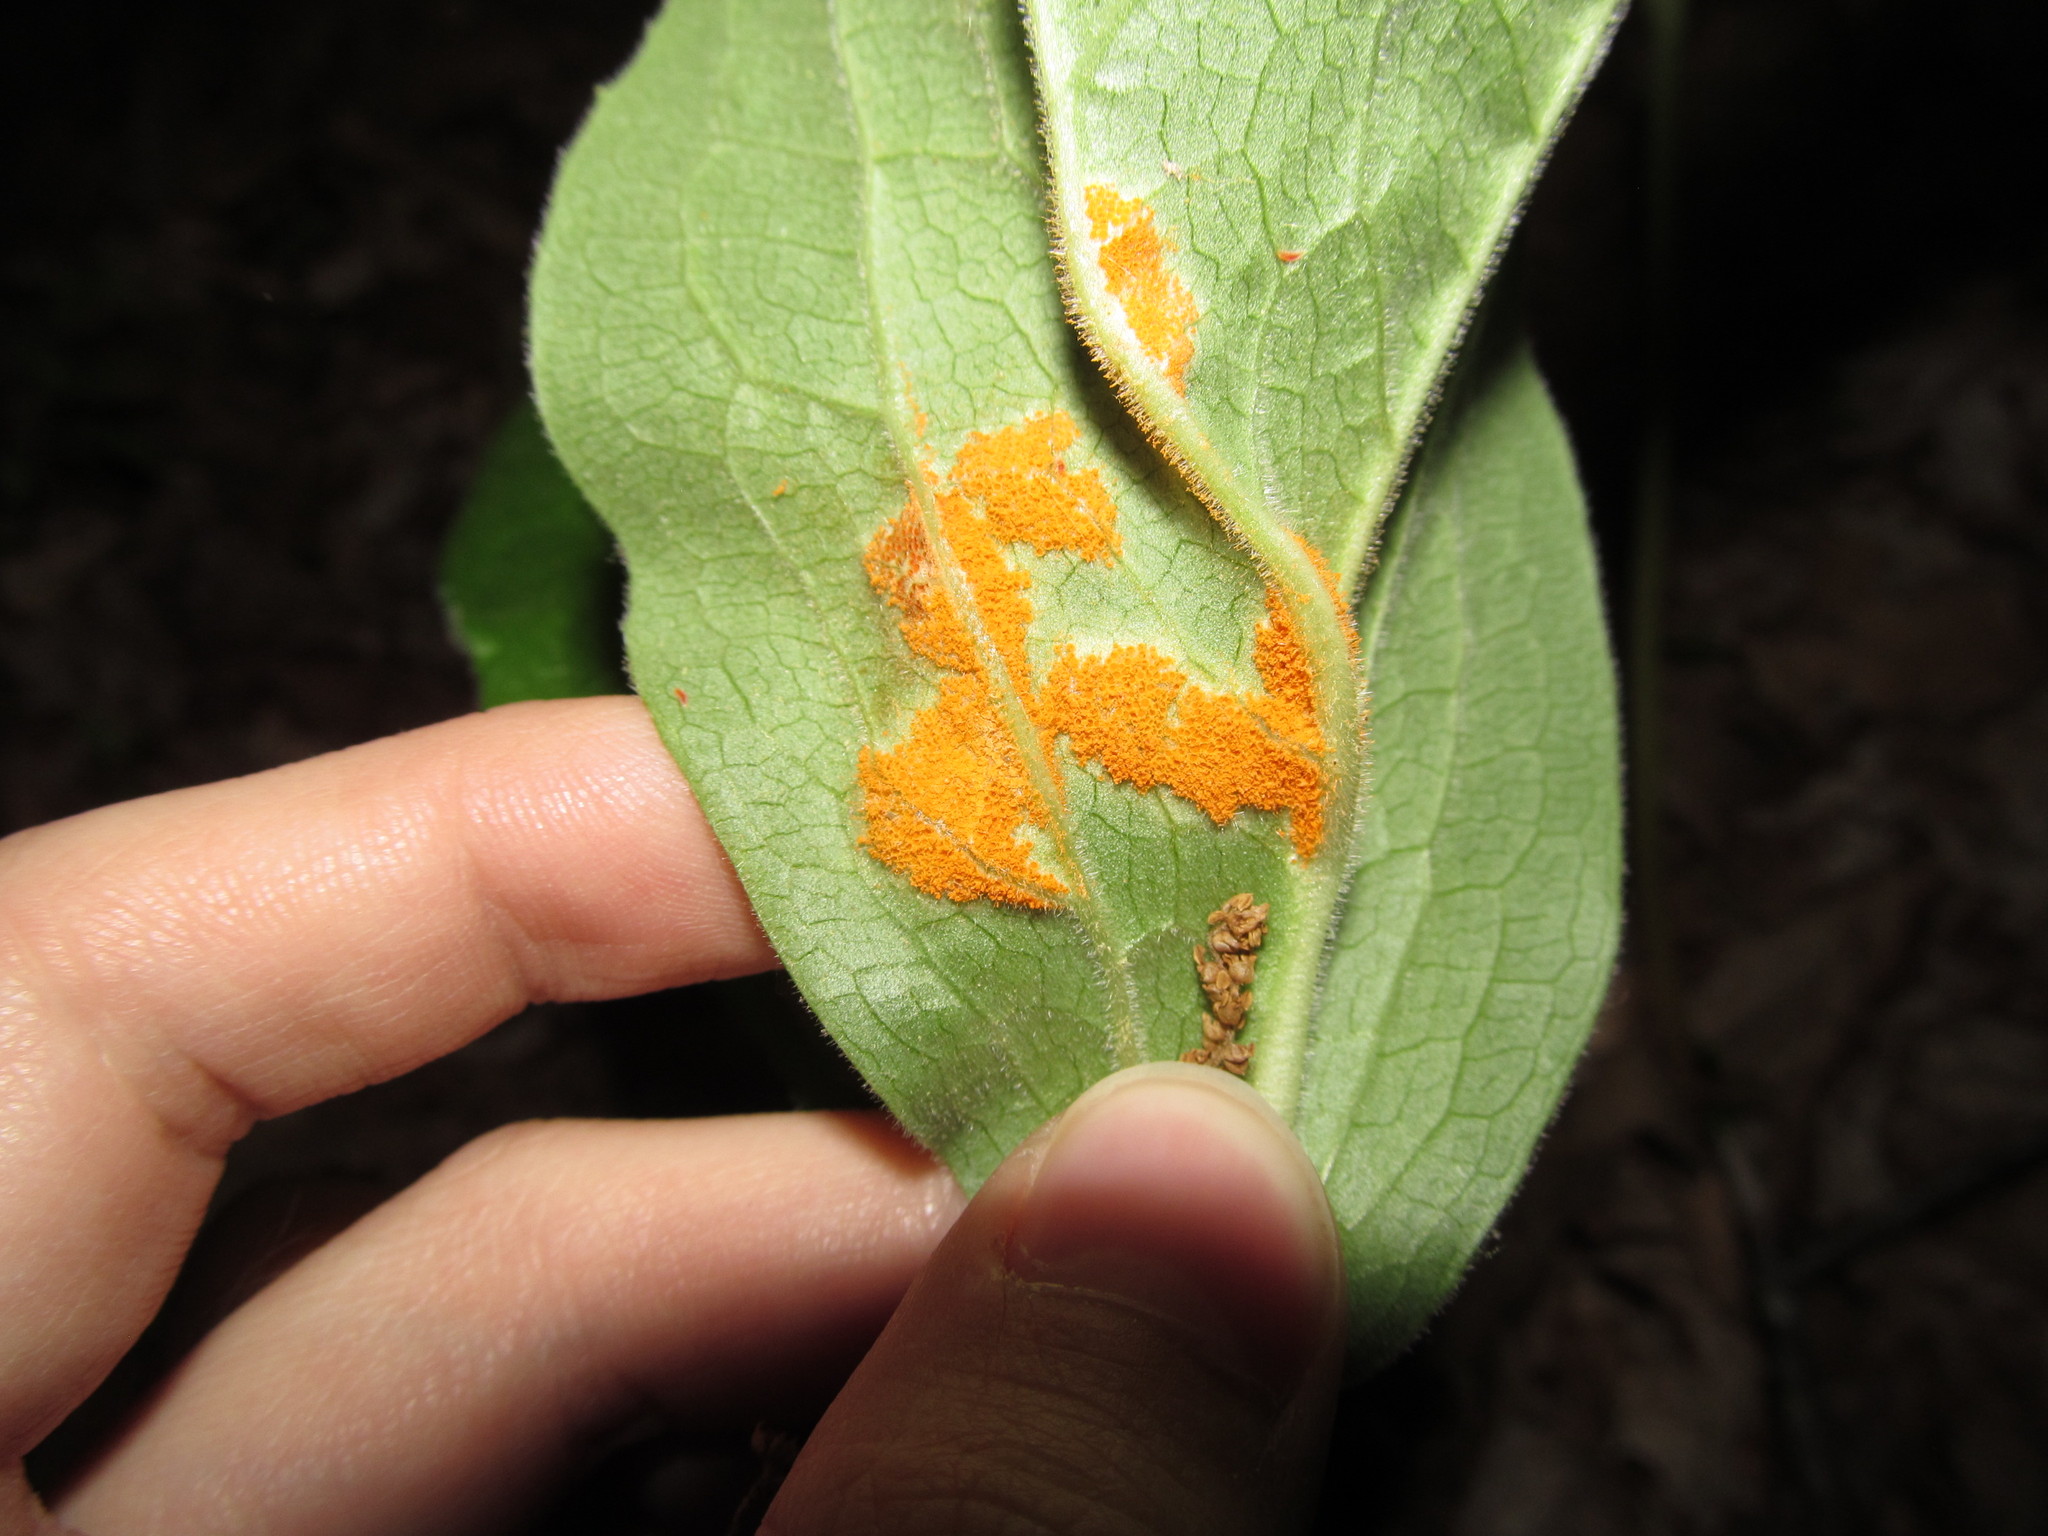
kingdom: Fungi
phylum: Basidiomycota
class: Pucciniomycetes
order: Pucciniales
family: Pucciniaceae
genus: Puccinia
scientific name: Puccinia podophylli
